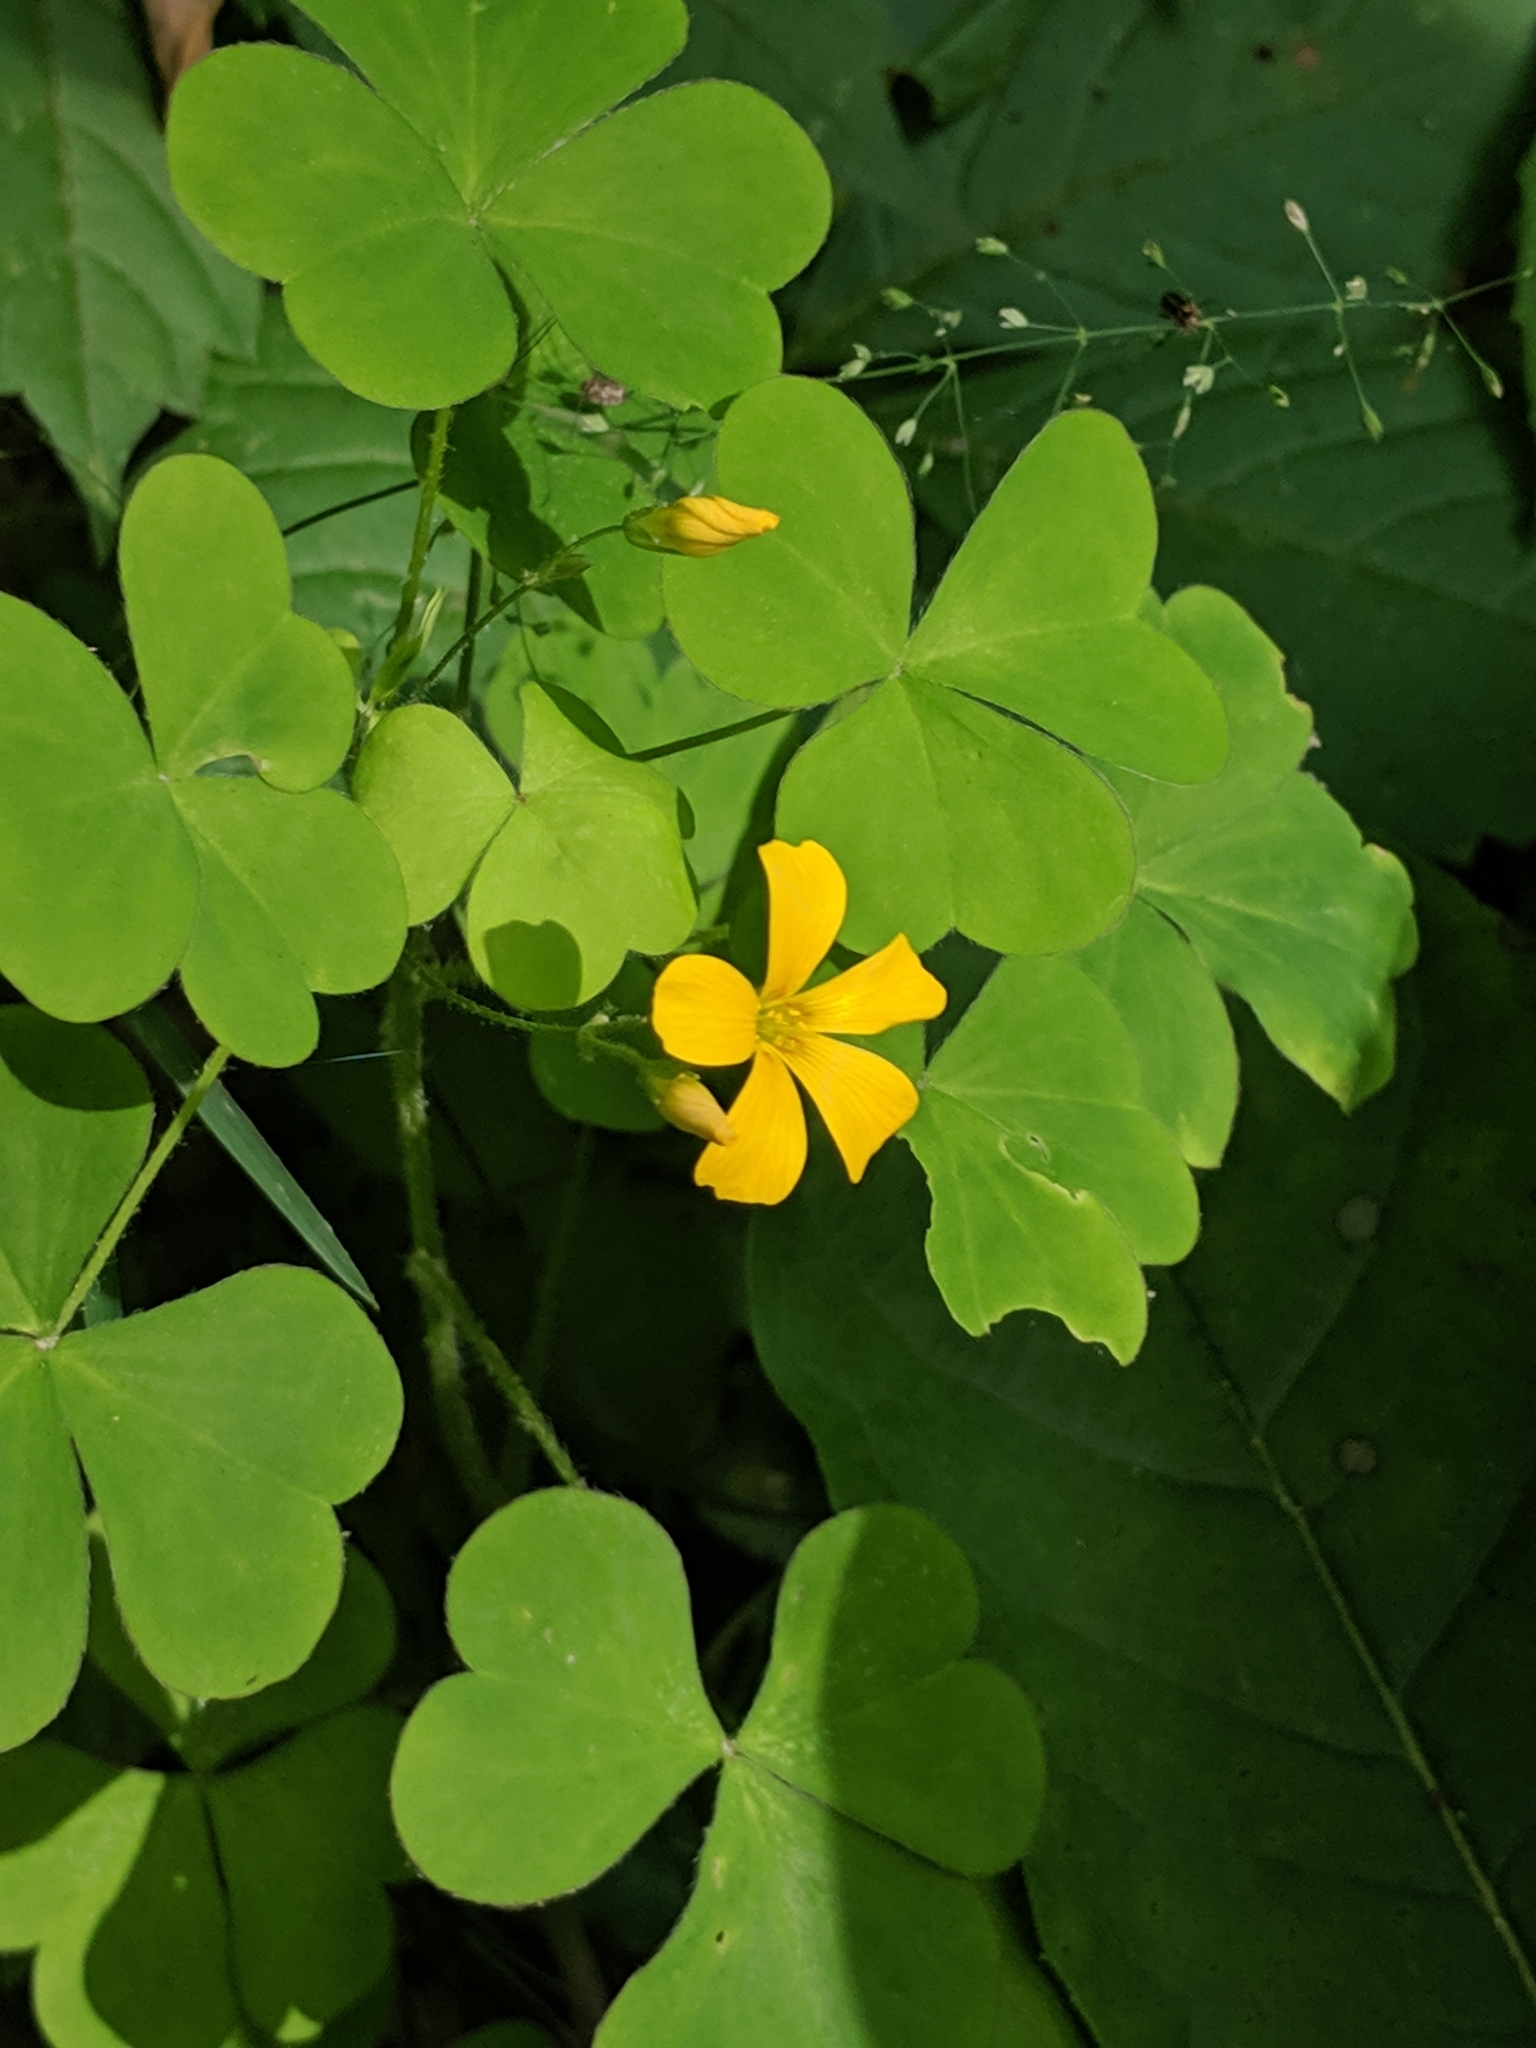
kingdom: Plantae
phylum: Tracheophyta
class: Magnoliopsida
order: Oxalidales
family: Oxalidaceae
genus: Oxalis
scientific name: Oxalis grandis
